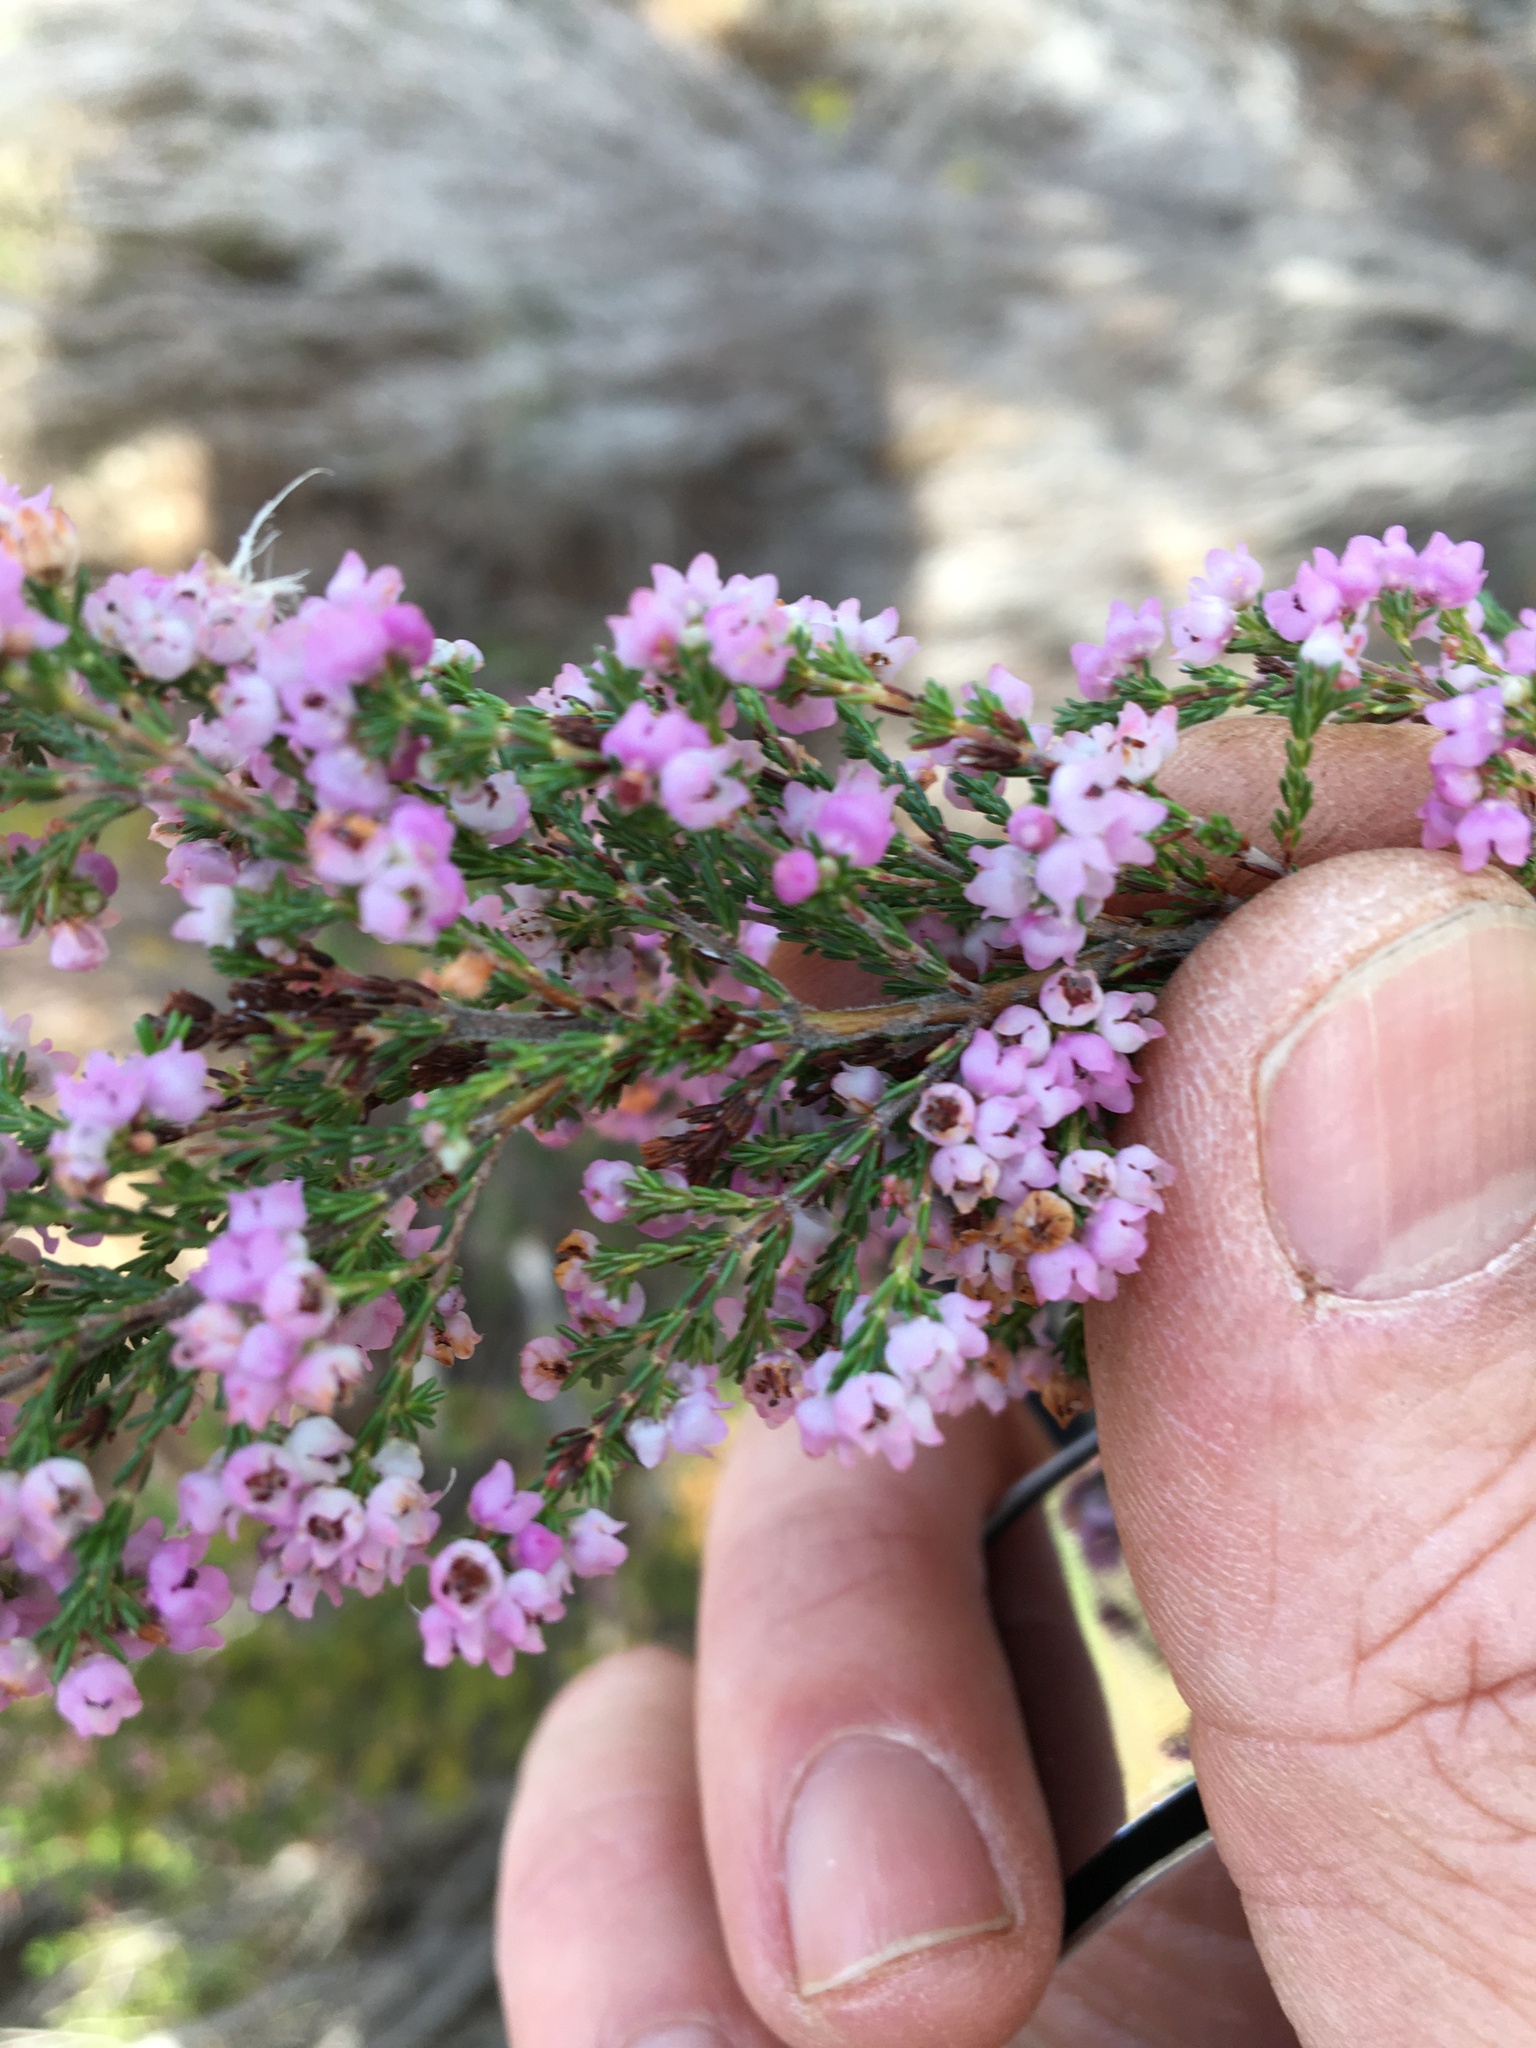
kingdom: Plantae
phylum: Tracheophyta
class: Magnoliopsida
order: Ericales
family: Ericaceae
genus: Erica
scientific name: Erica mauritanica
